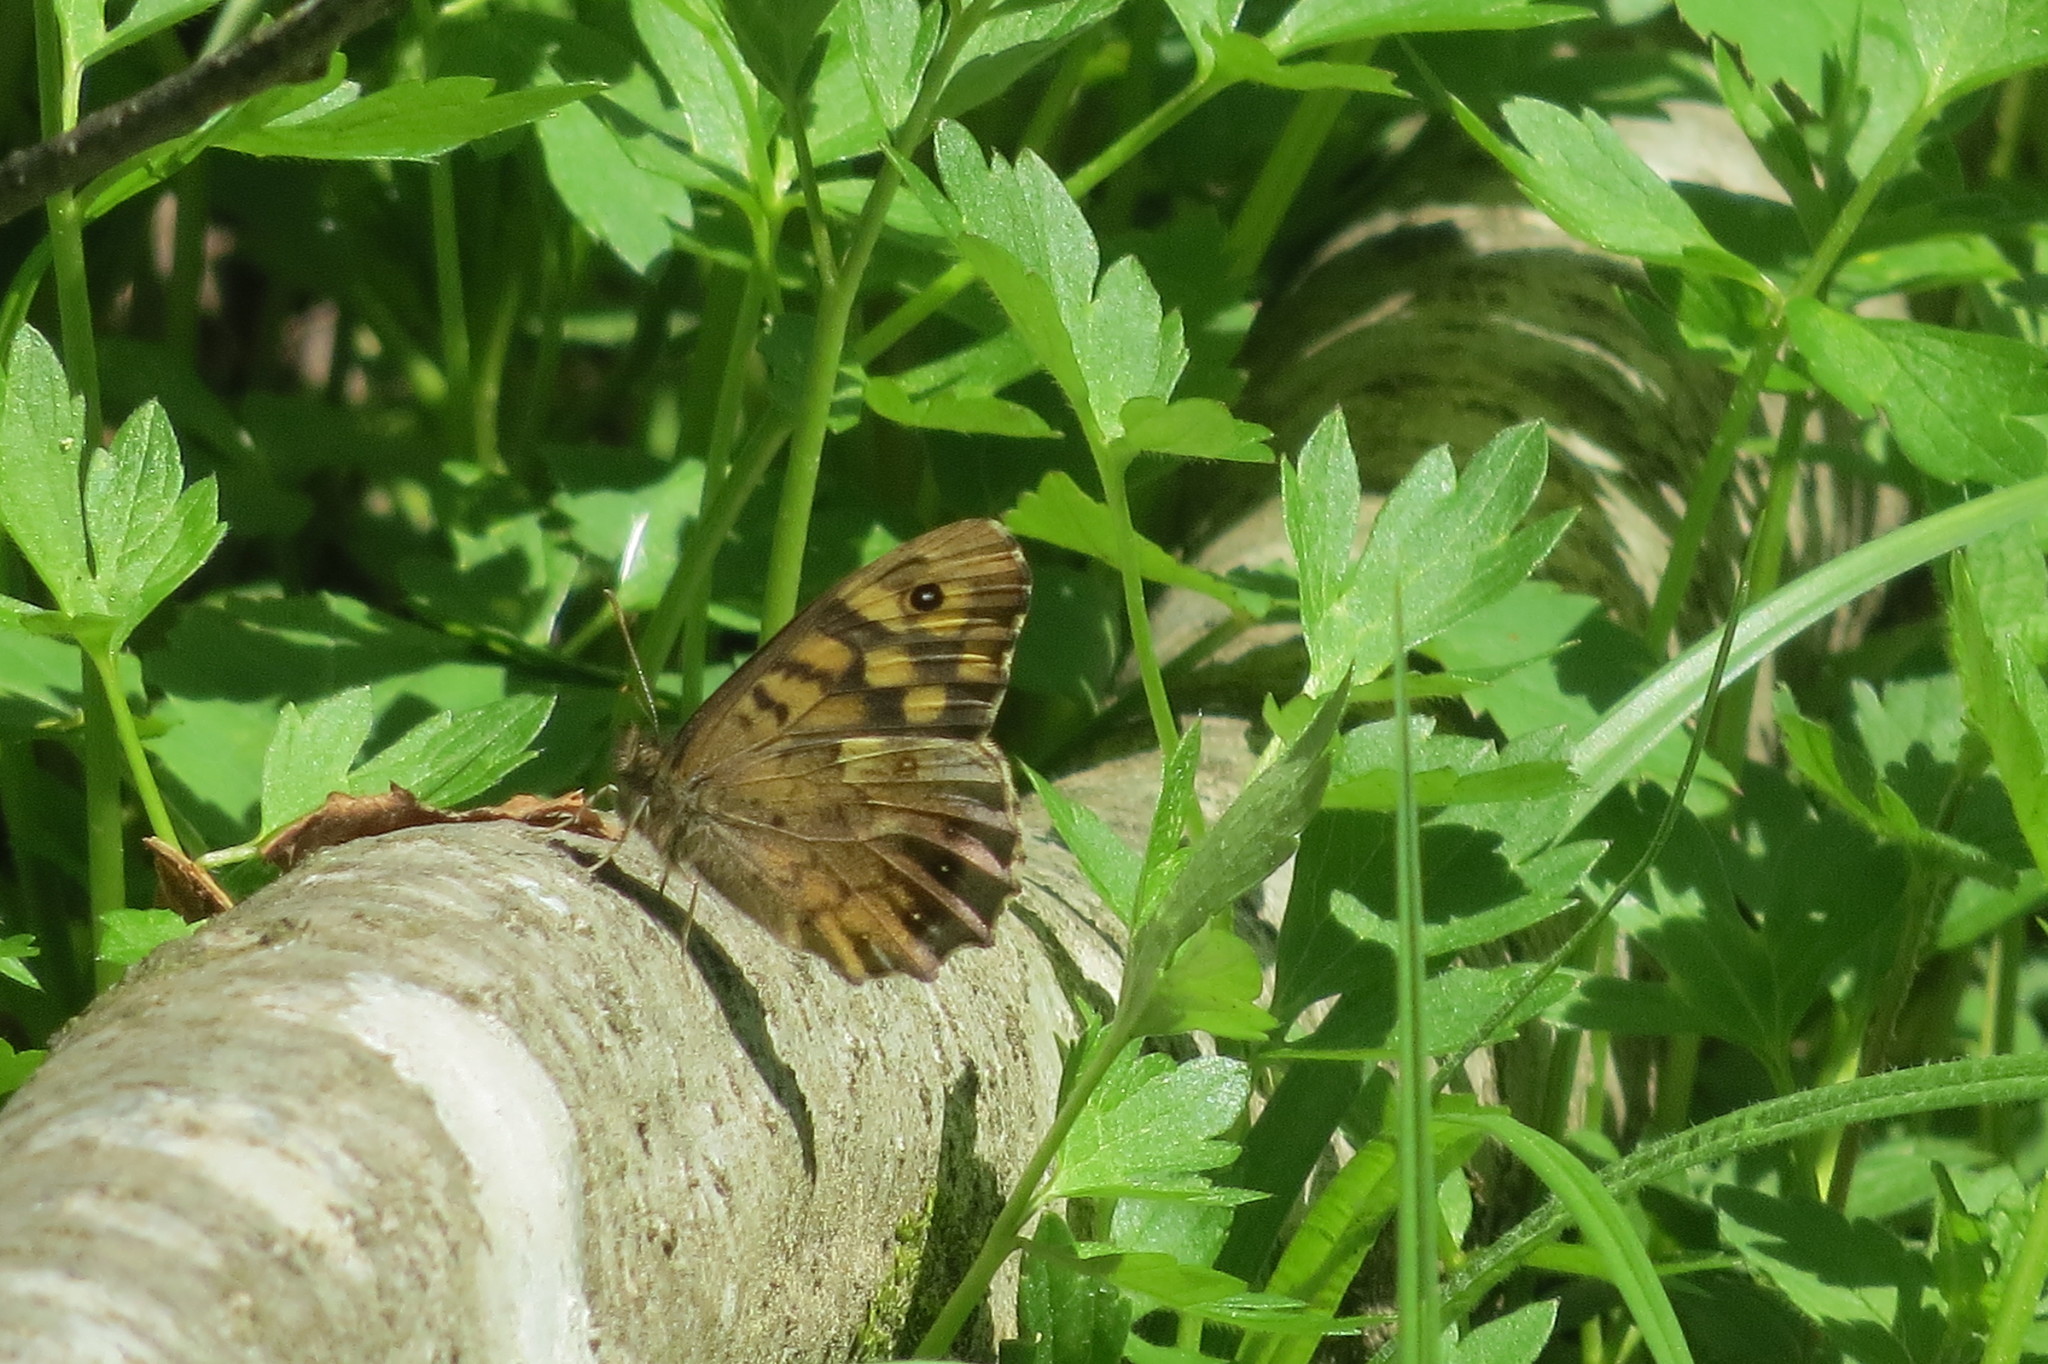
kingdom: Animalia
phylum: Arthropoda
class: Insecta
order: Lepidoptera
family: Nymphalidae
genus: Pararge
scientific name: Pararge aegeria
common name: Speckled wood
